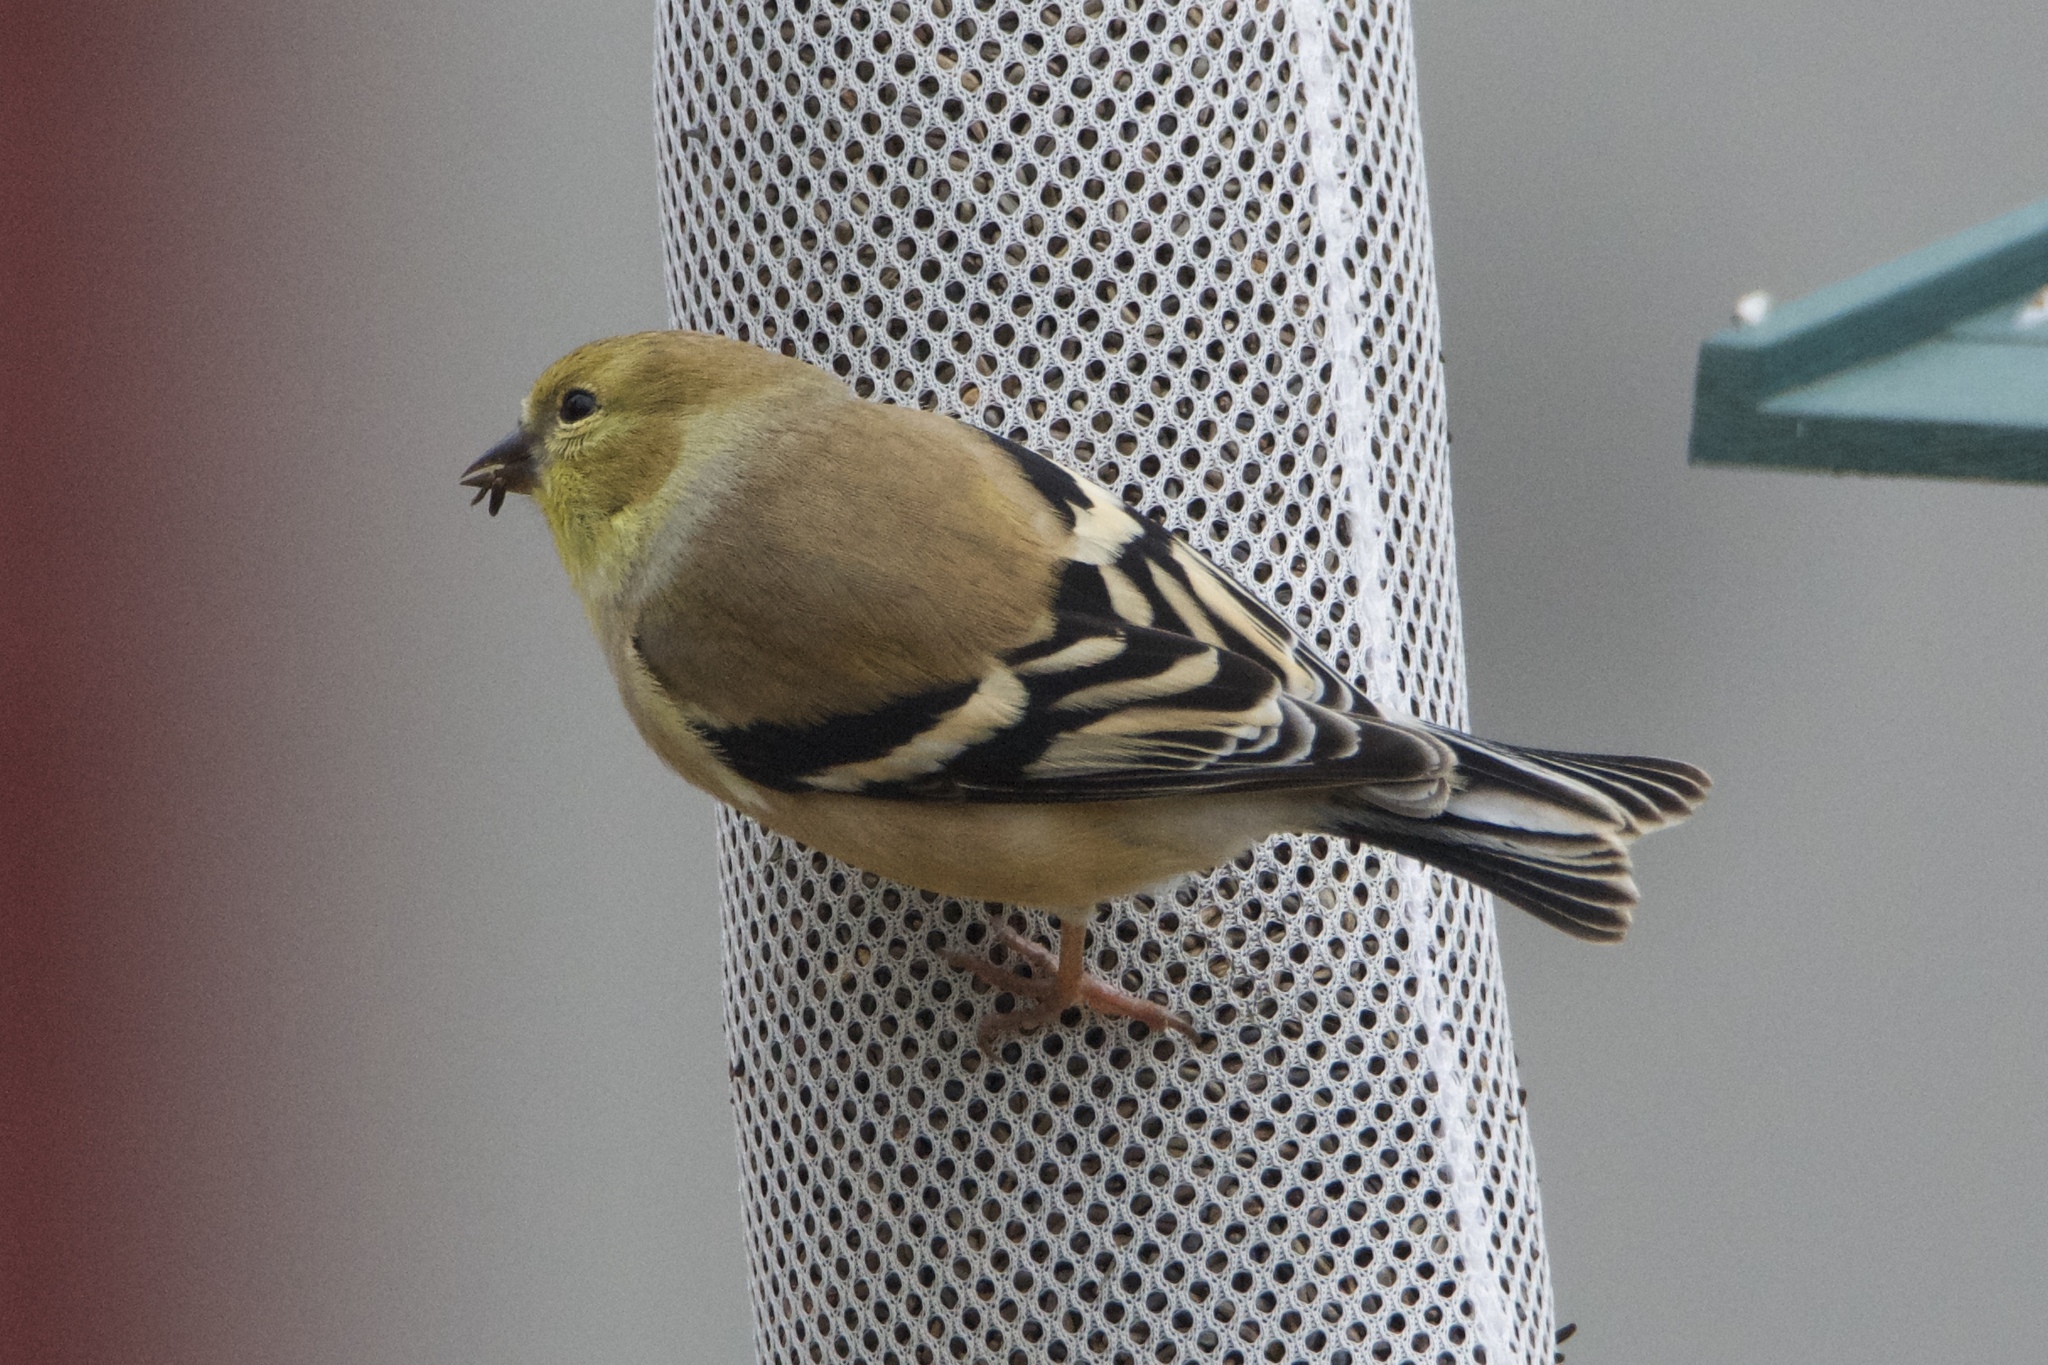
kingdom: Animalia
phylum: Chordata
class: Aves
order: Passeriformes
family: Fringillidae
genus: Spinus
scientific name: Spinus tristis
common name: American goldfinch
